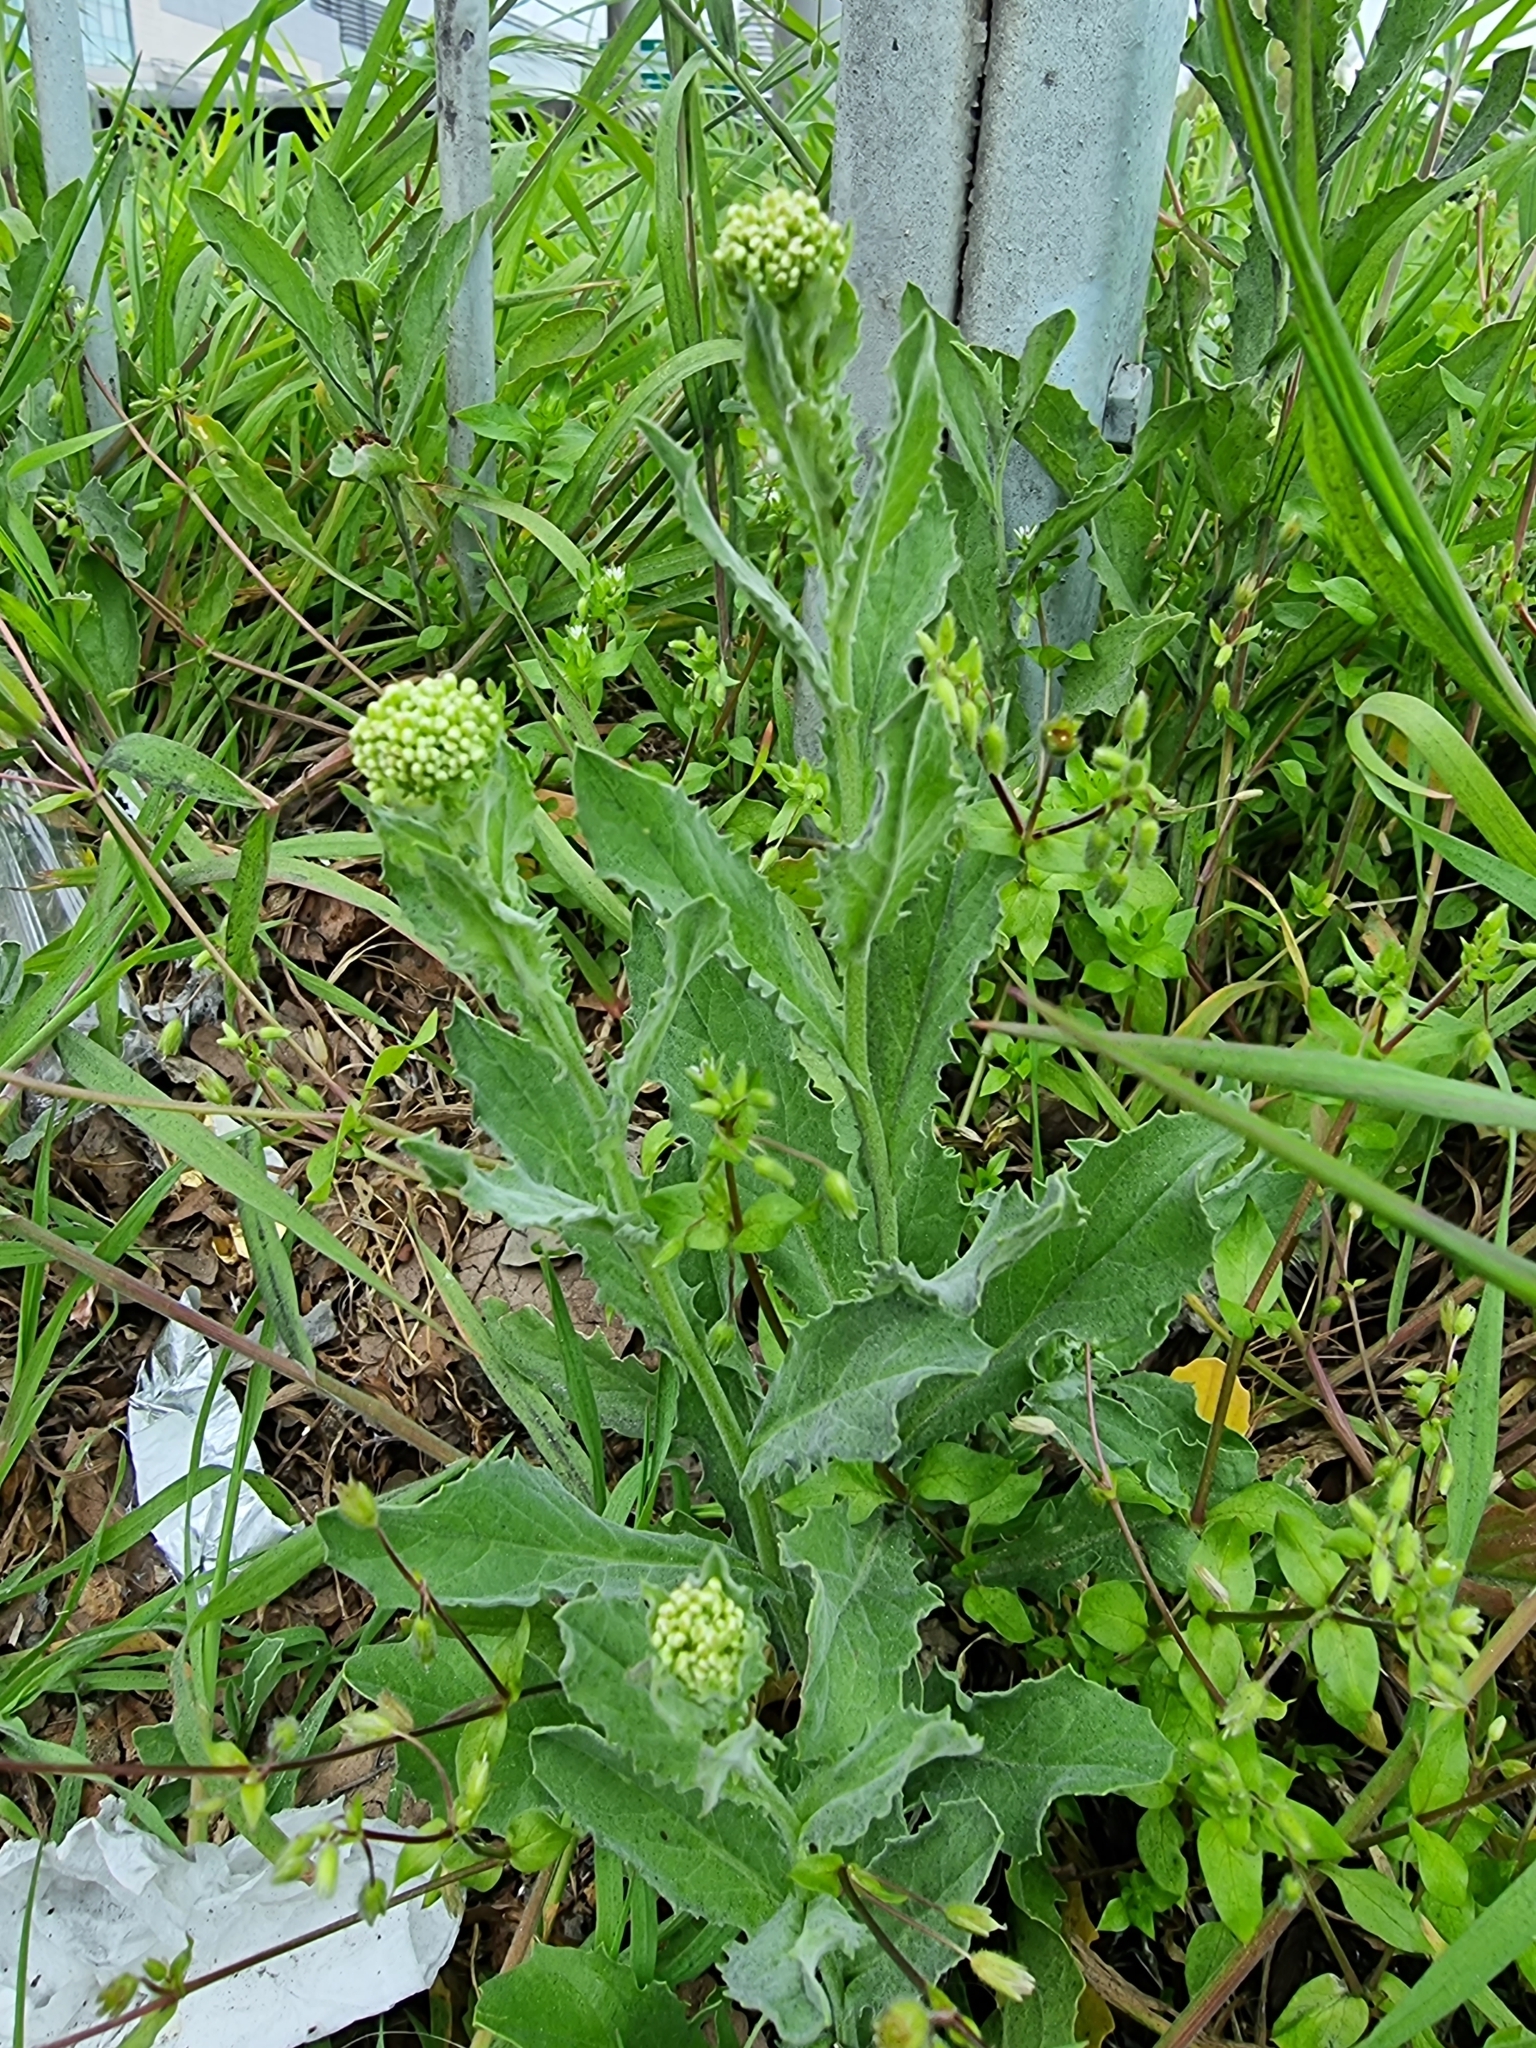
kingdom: Plantae
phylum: Tracheophyta
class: Magnoliopsida
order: Brassicales
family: Brassicaceae
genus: Lepidium
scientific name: Lepidium draba
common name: Hoary cress
